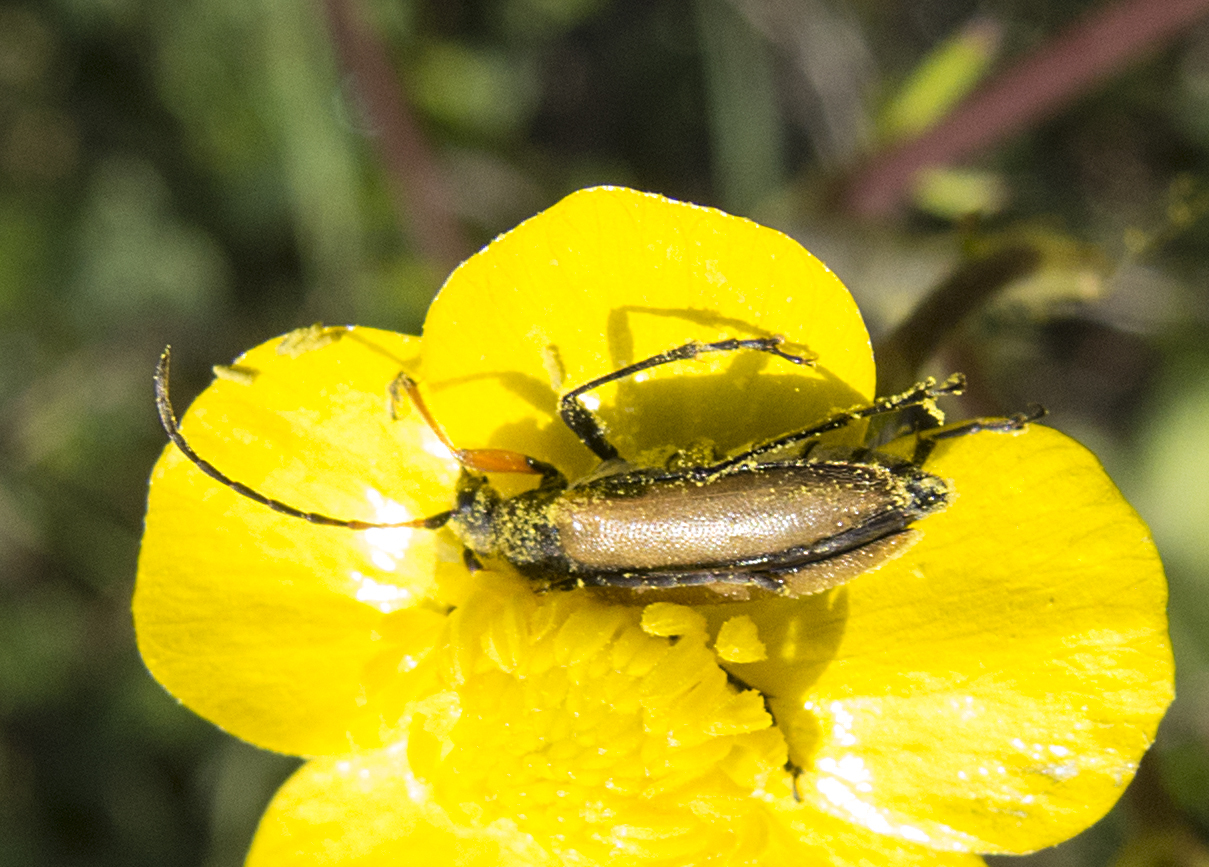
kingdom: Animalia
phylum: Arthropoda
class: Insecta
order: Coleoptera
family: Cerambycidae
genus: Cortodera
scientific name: Cortodera flavimana
